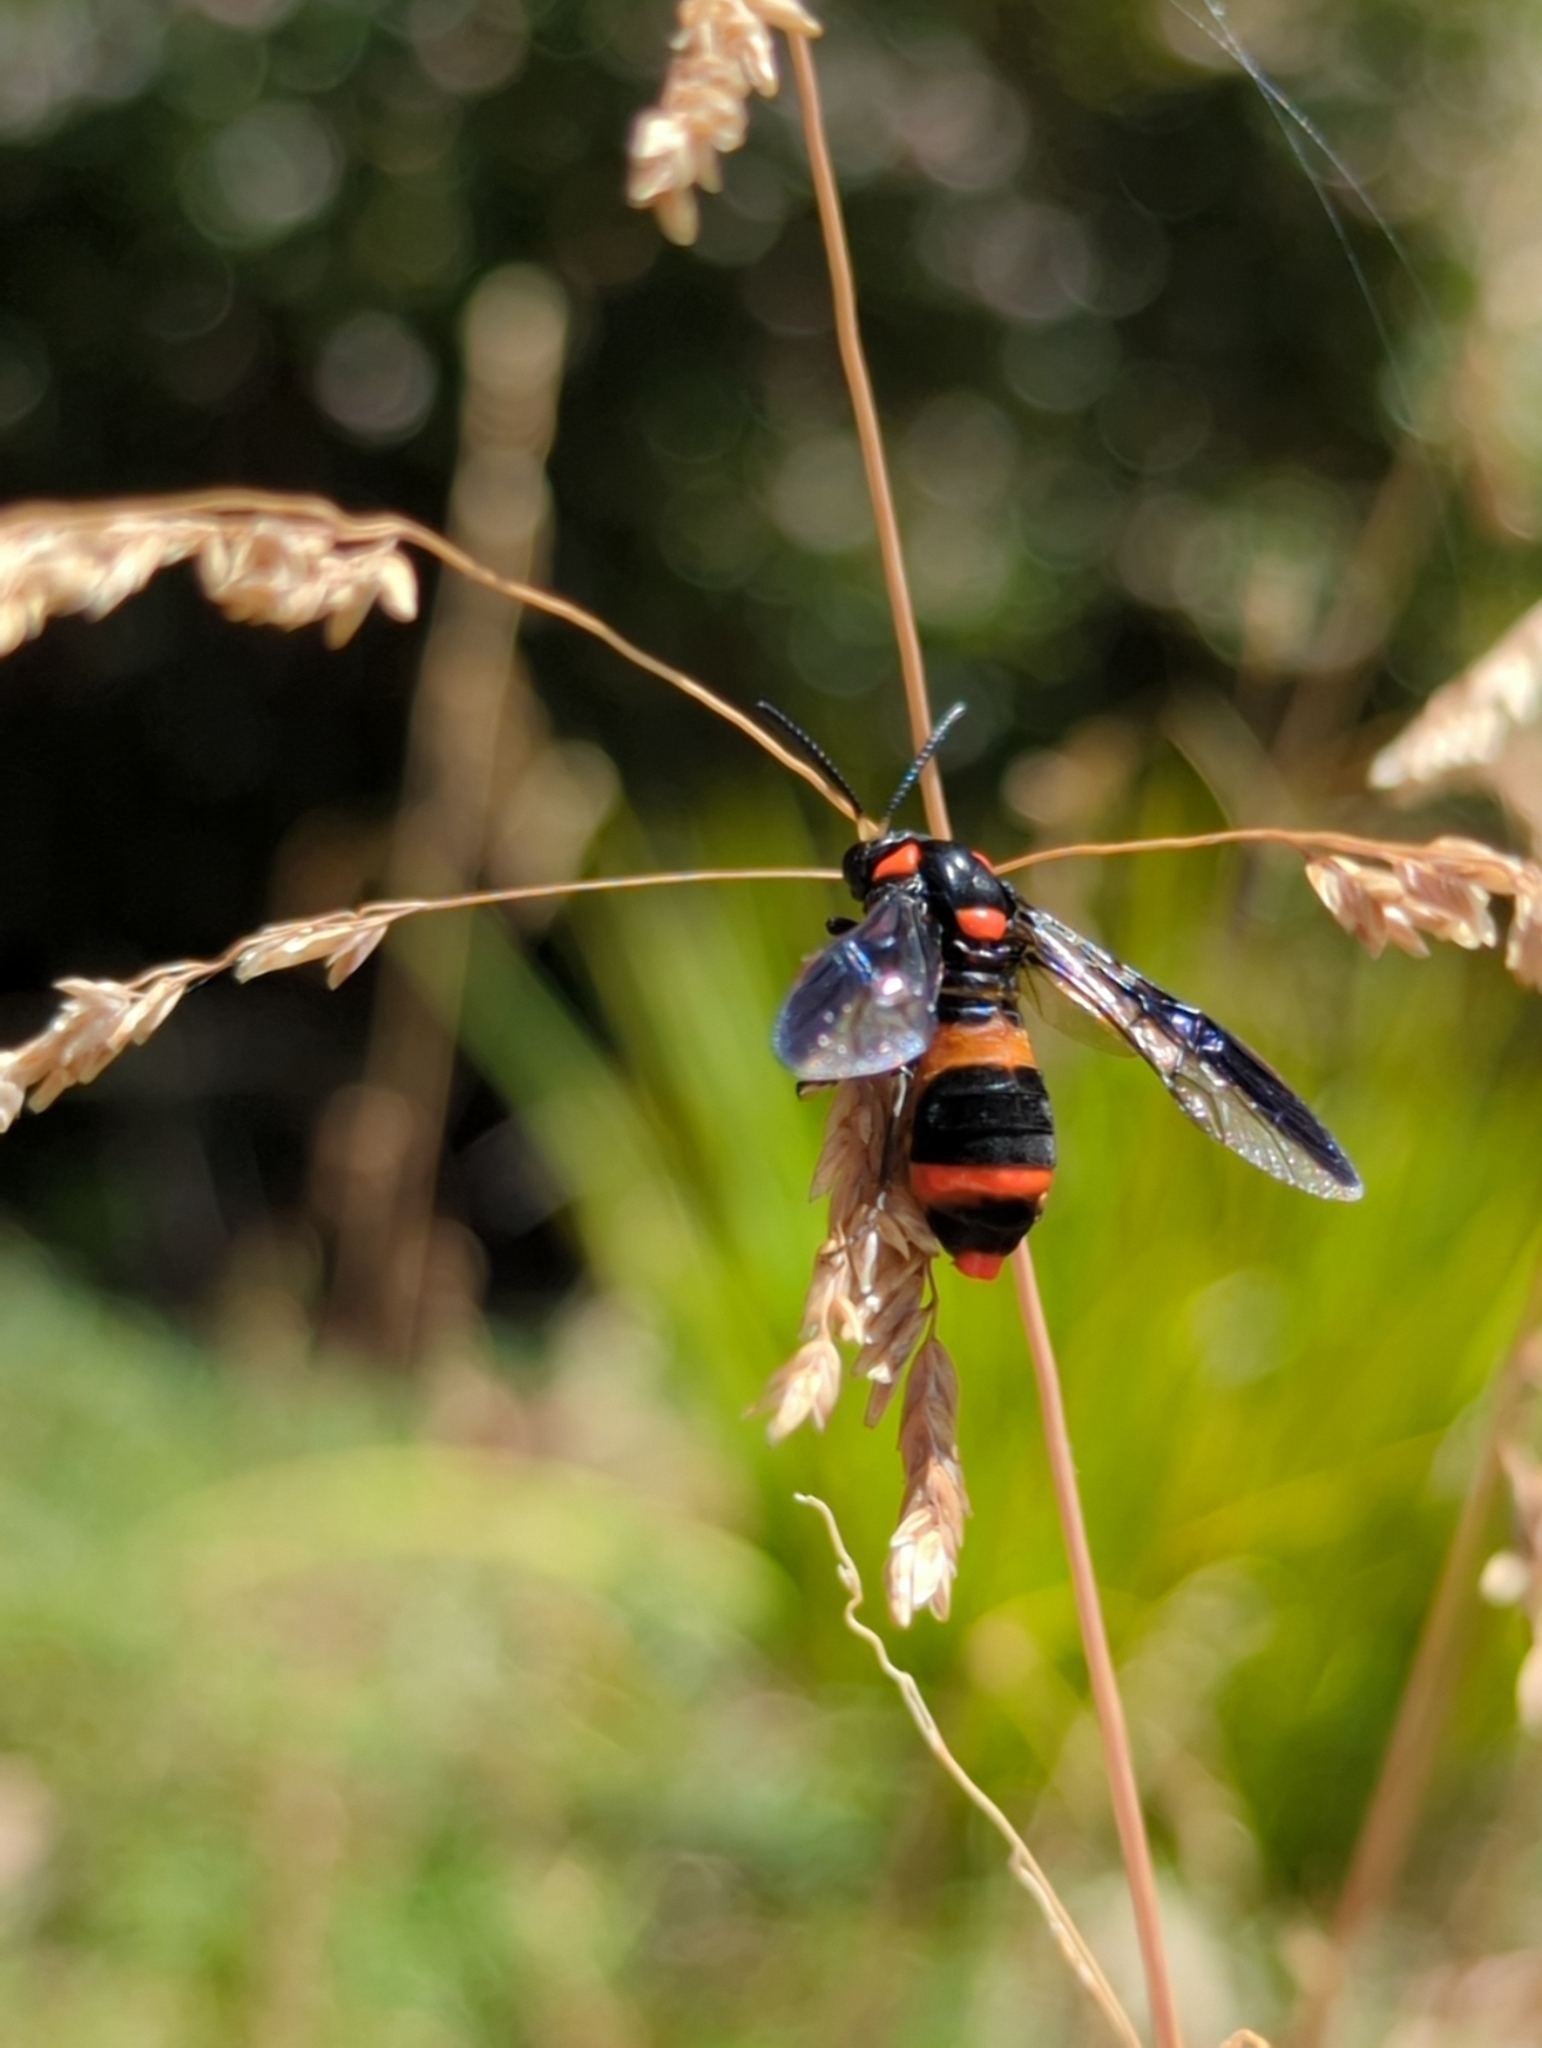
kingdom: Animalia
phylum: Arthropoda
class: Insecta
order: Hymenoptera
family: Pergidae
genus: Pterygophorus
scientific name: Pterygophorus
